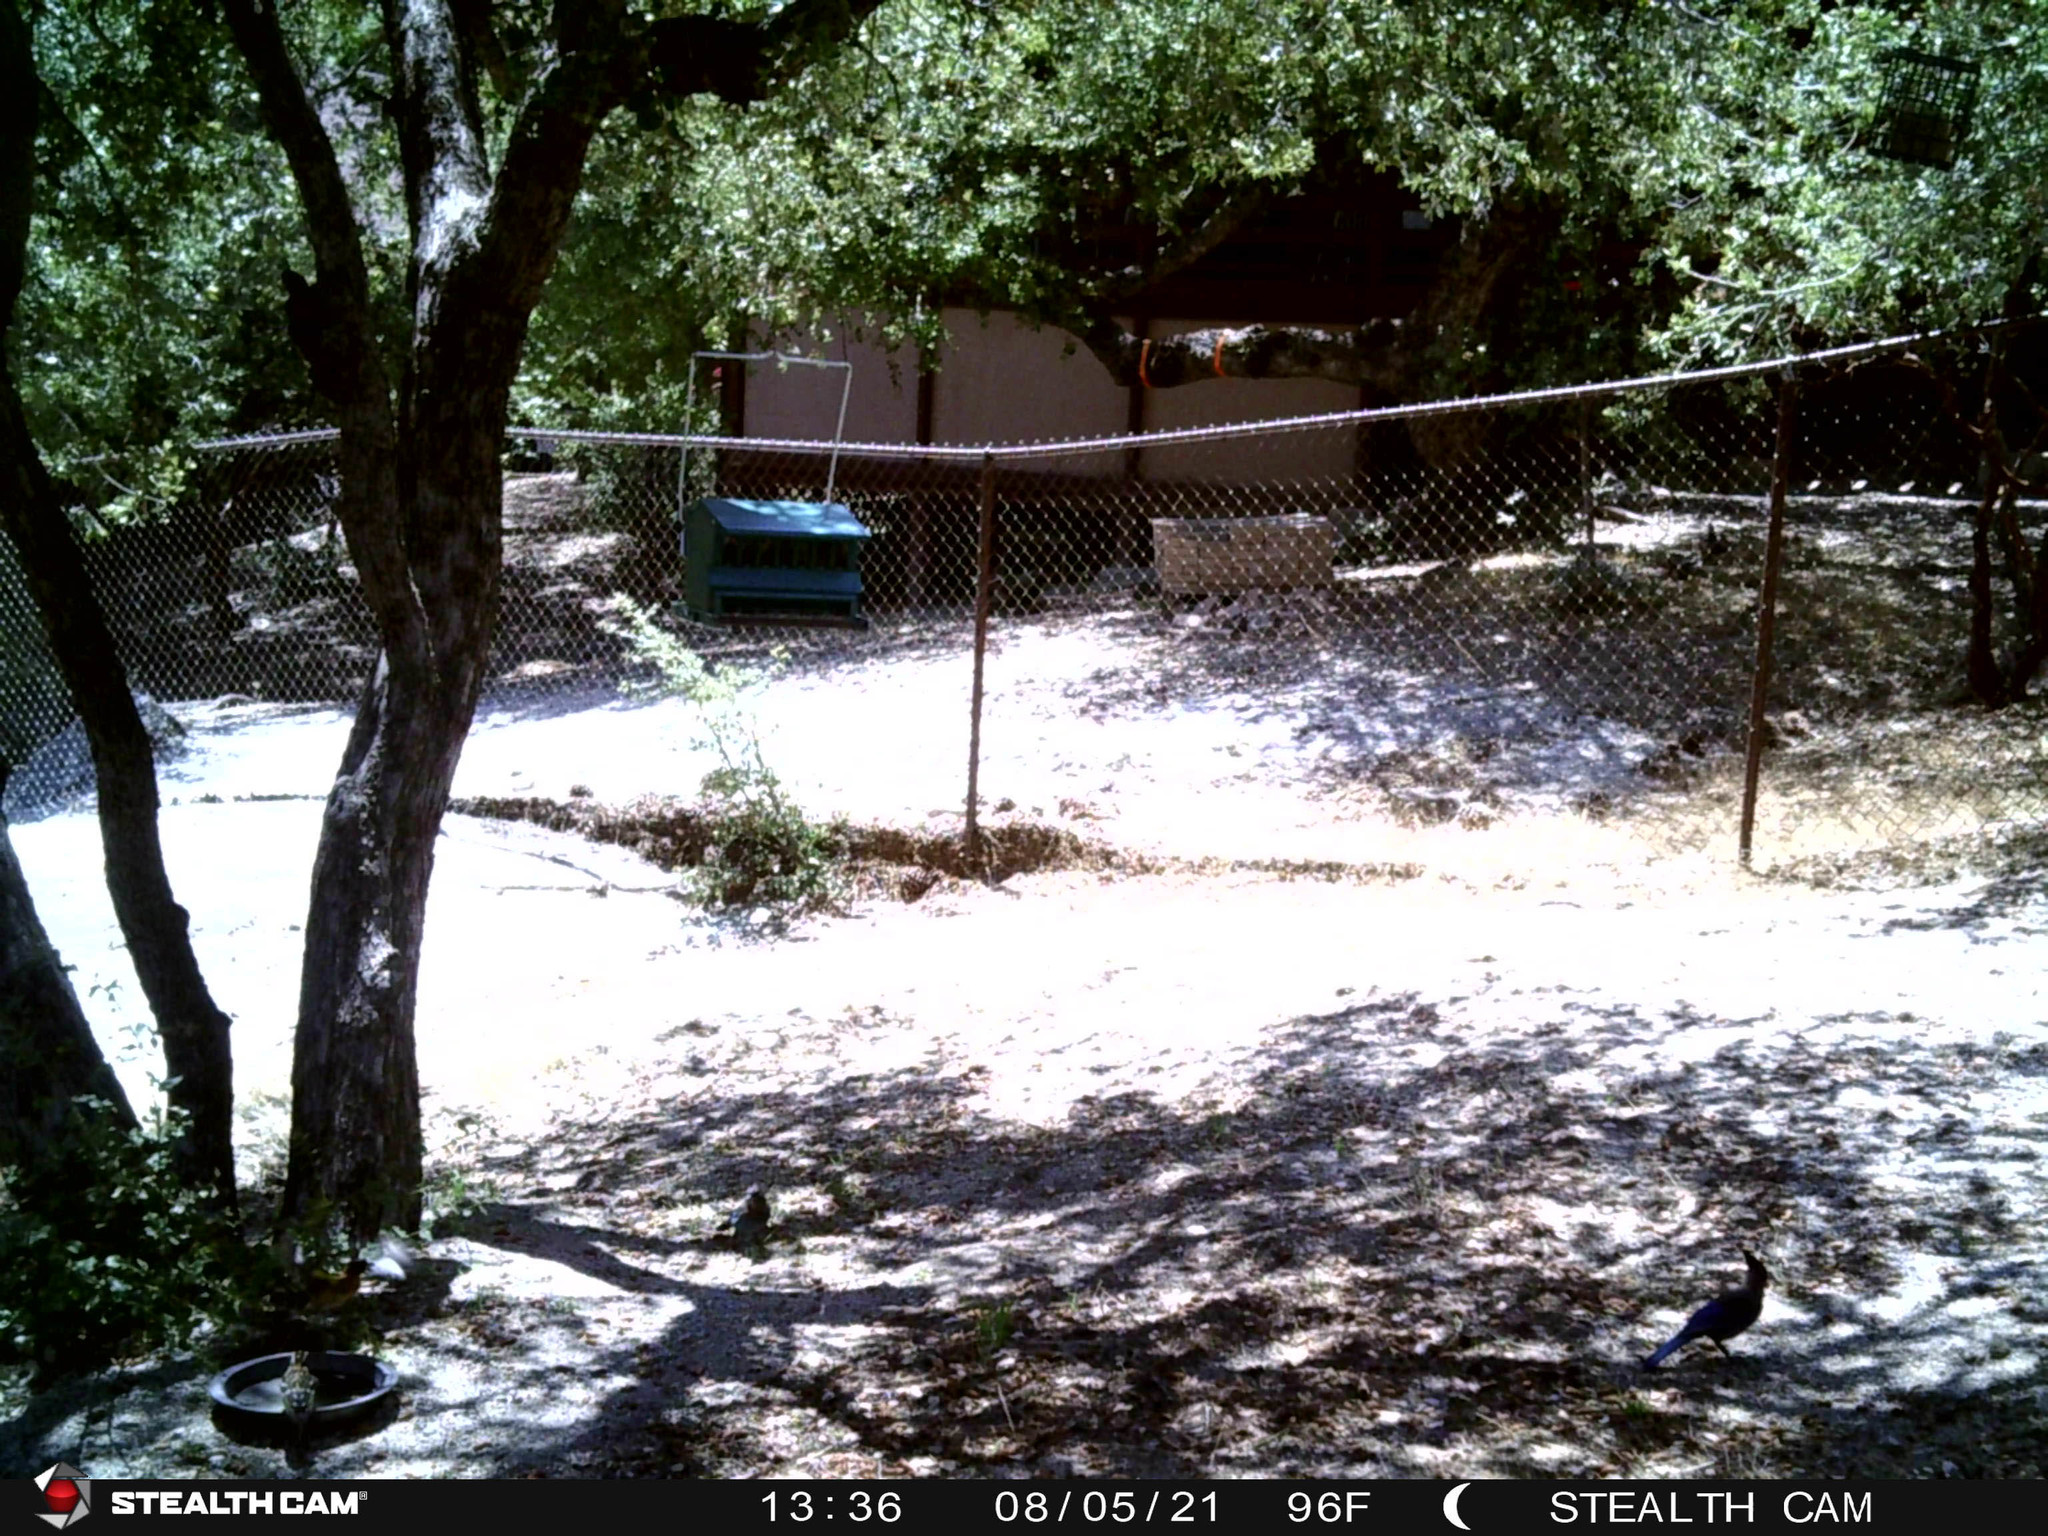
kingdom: Animalia
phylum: Chordata
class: Aves
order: Passeriformes
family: Corvidae
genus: Cyanocitta
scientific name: Cyanocitta stelleri
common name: Steller's jay
